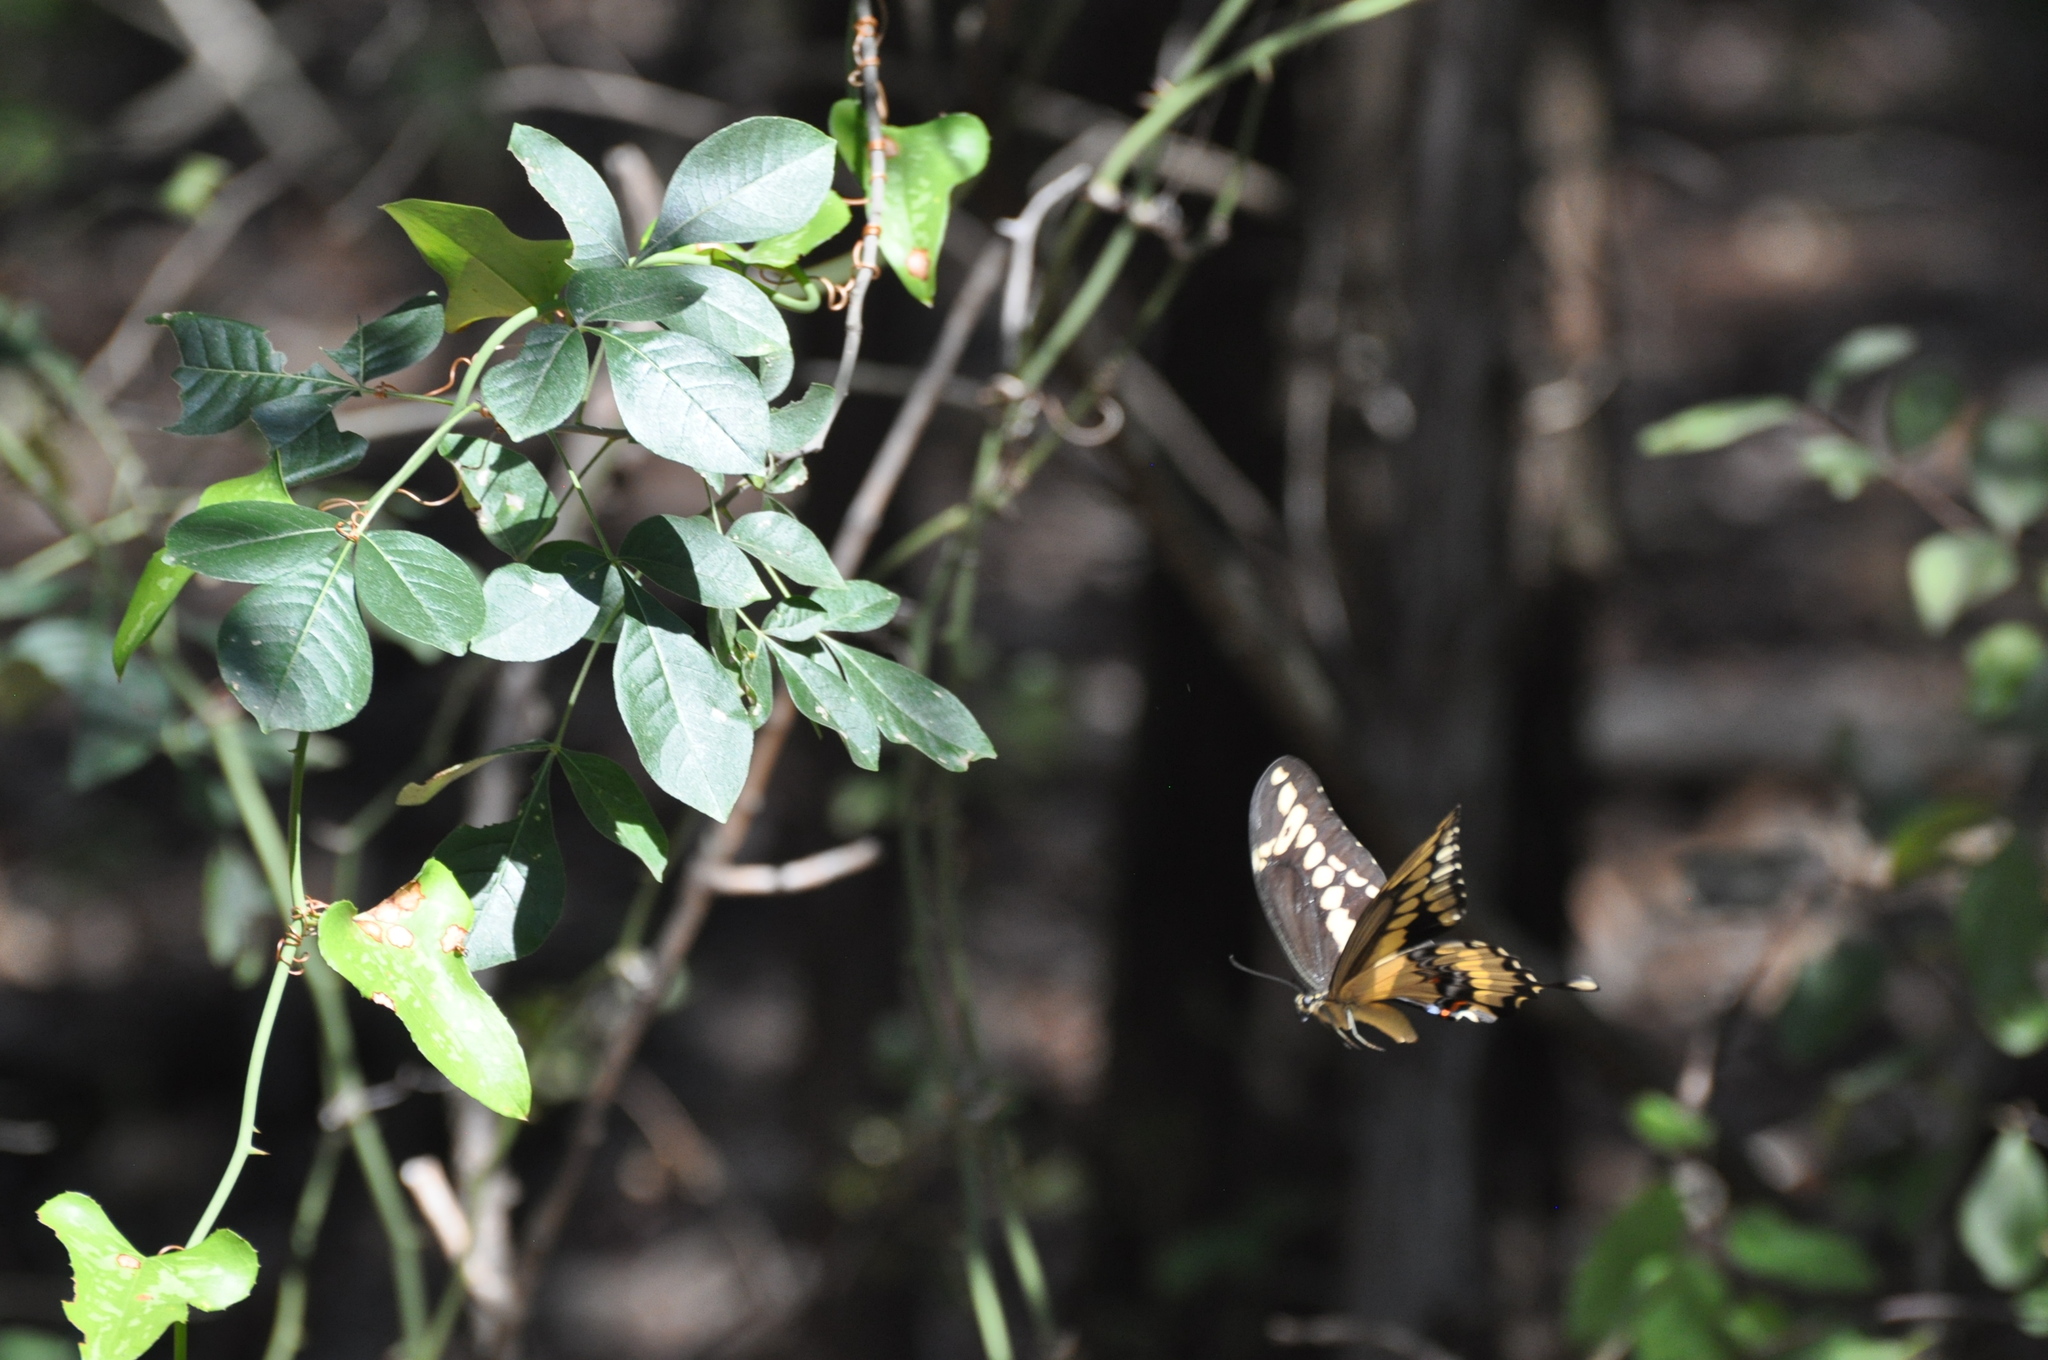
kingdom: Animalia
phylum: Arthropoda
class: Insecta
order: Lepidoptera
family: Papilionidae
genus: Papilio
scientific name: Papilio cresphontes
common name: Giant swallowtail
